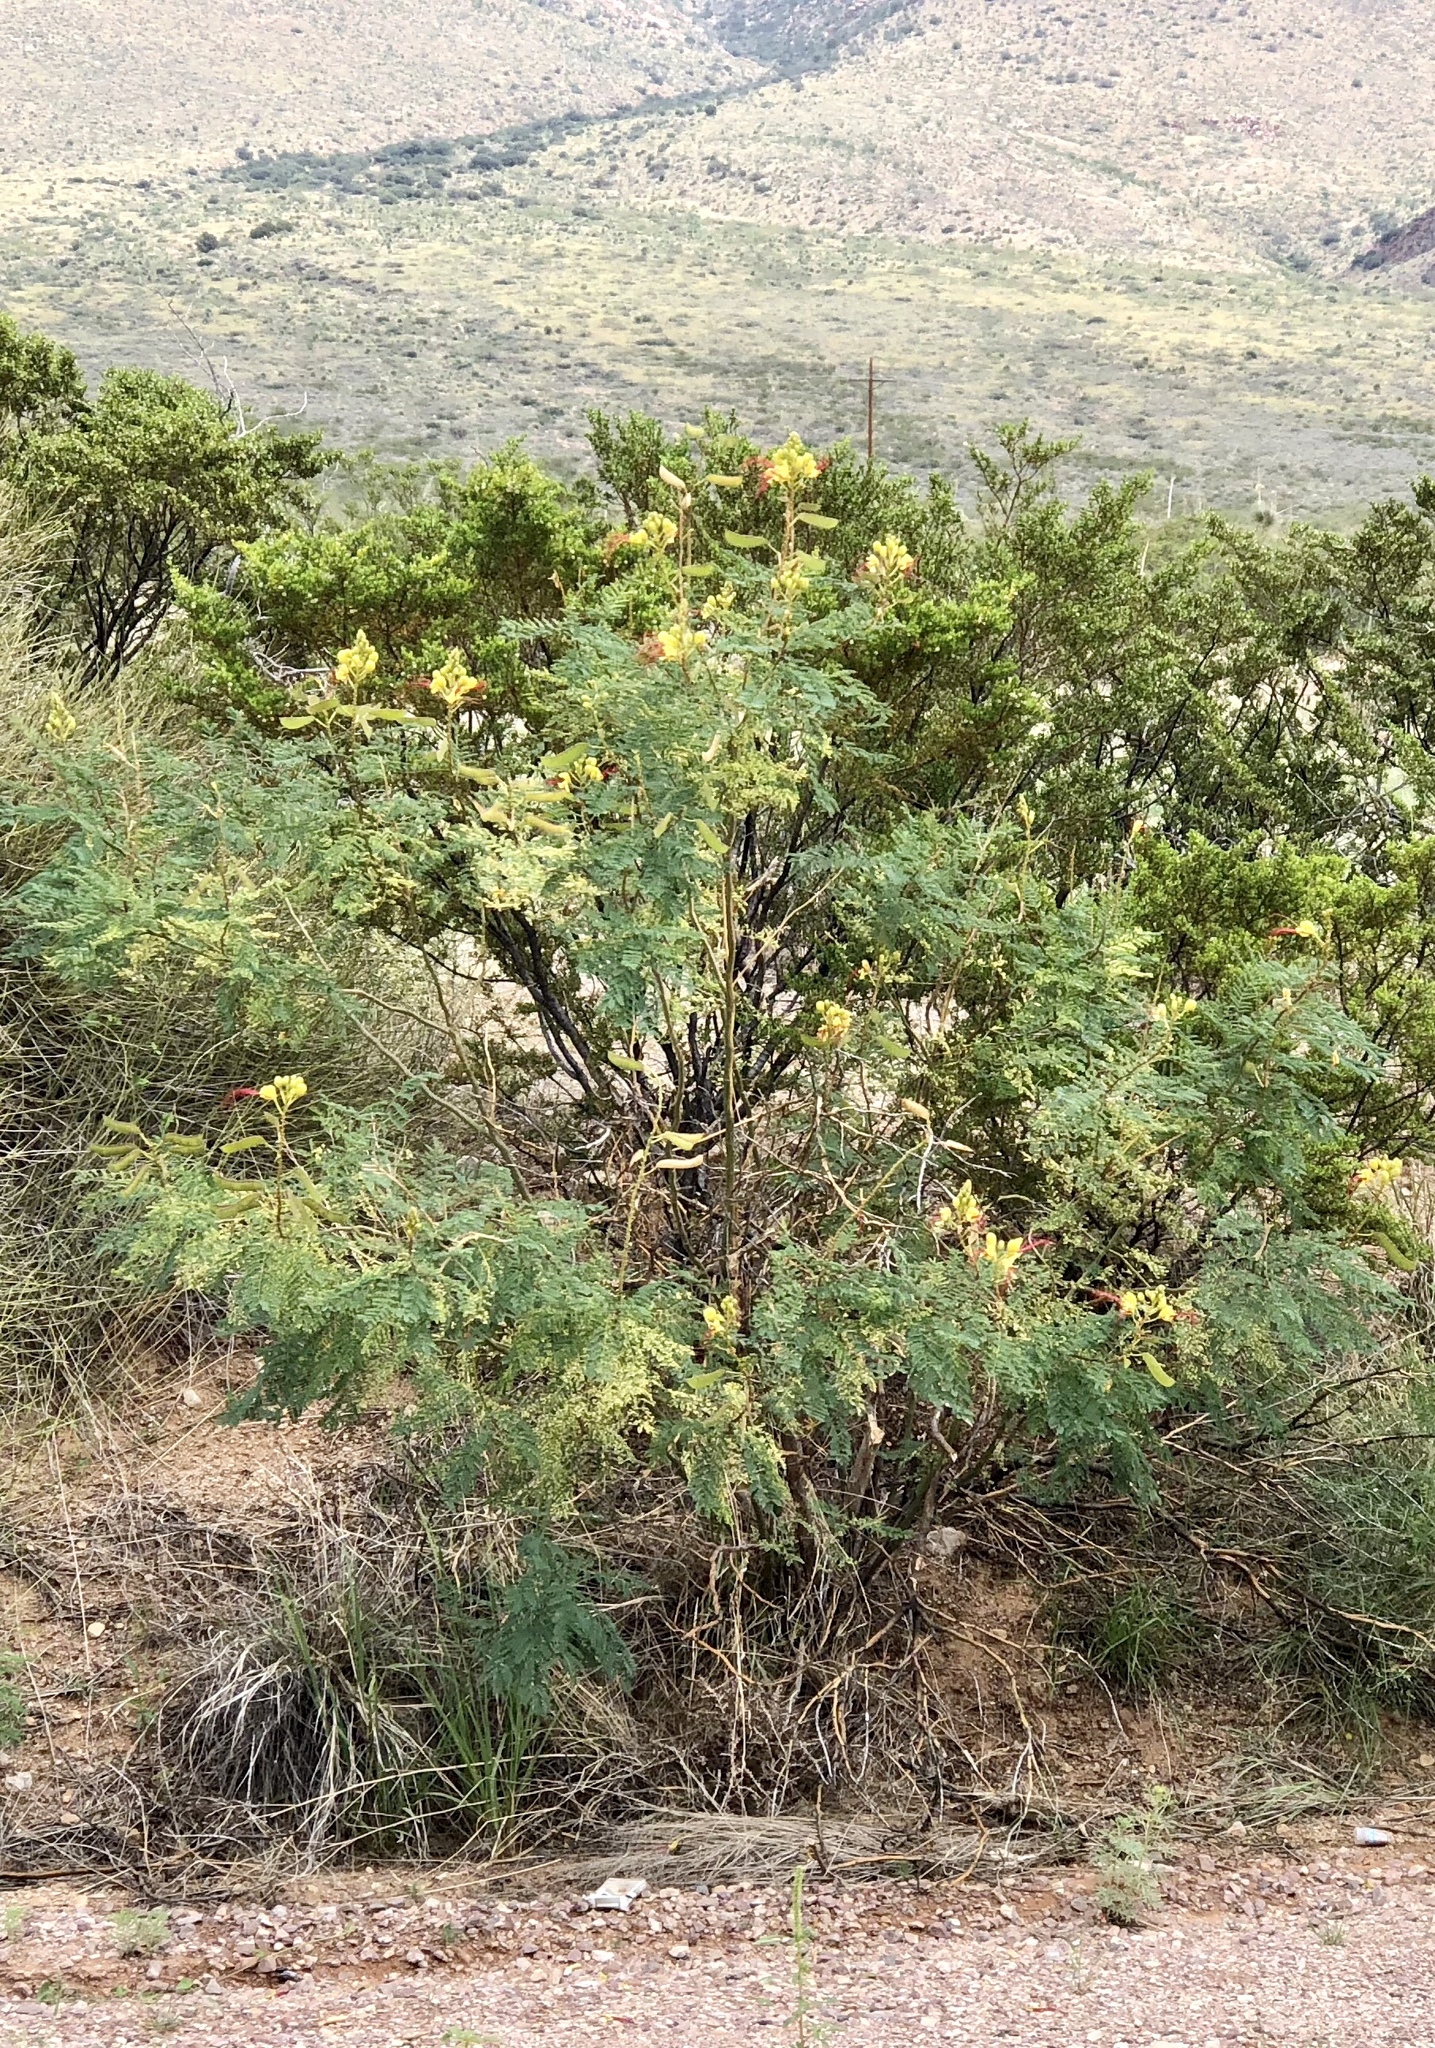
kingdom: Plantae
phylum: Tracheophyta
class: Magnoliopsida
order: Fabales
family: Fabaceae
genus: Erythrostemon
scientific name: Erythrostemon gilliesii
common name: Bird-of-paradise shrub
